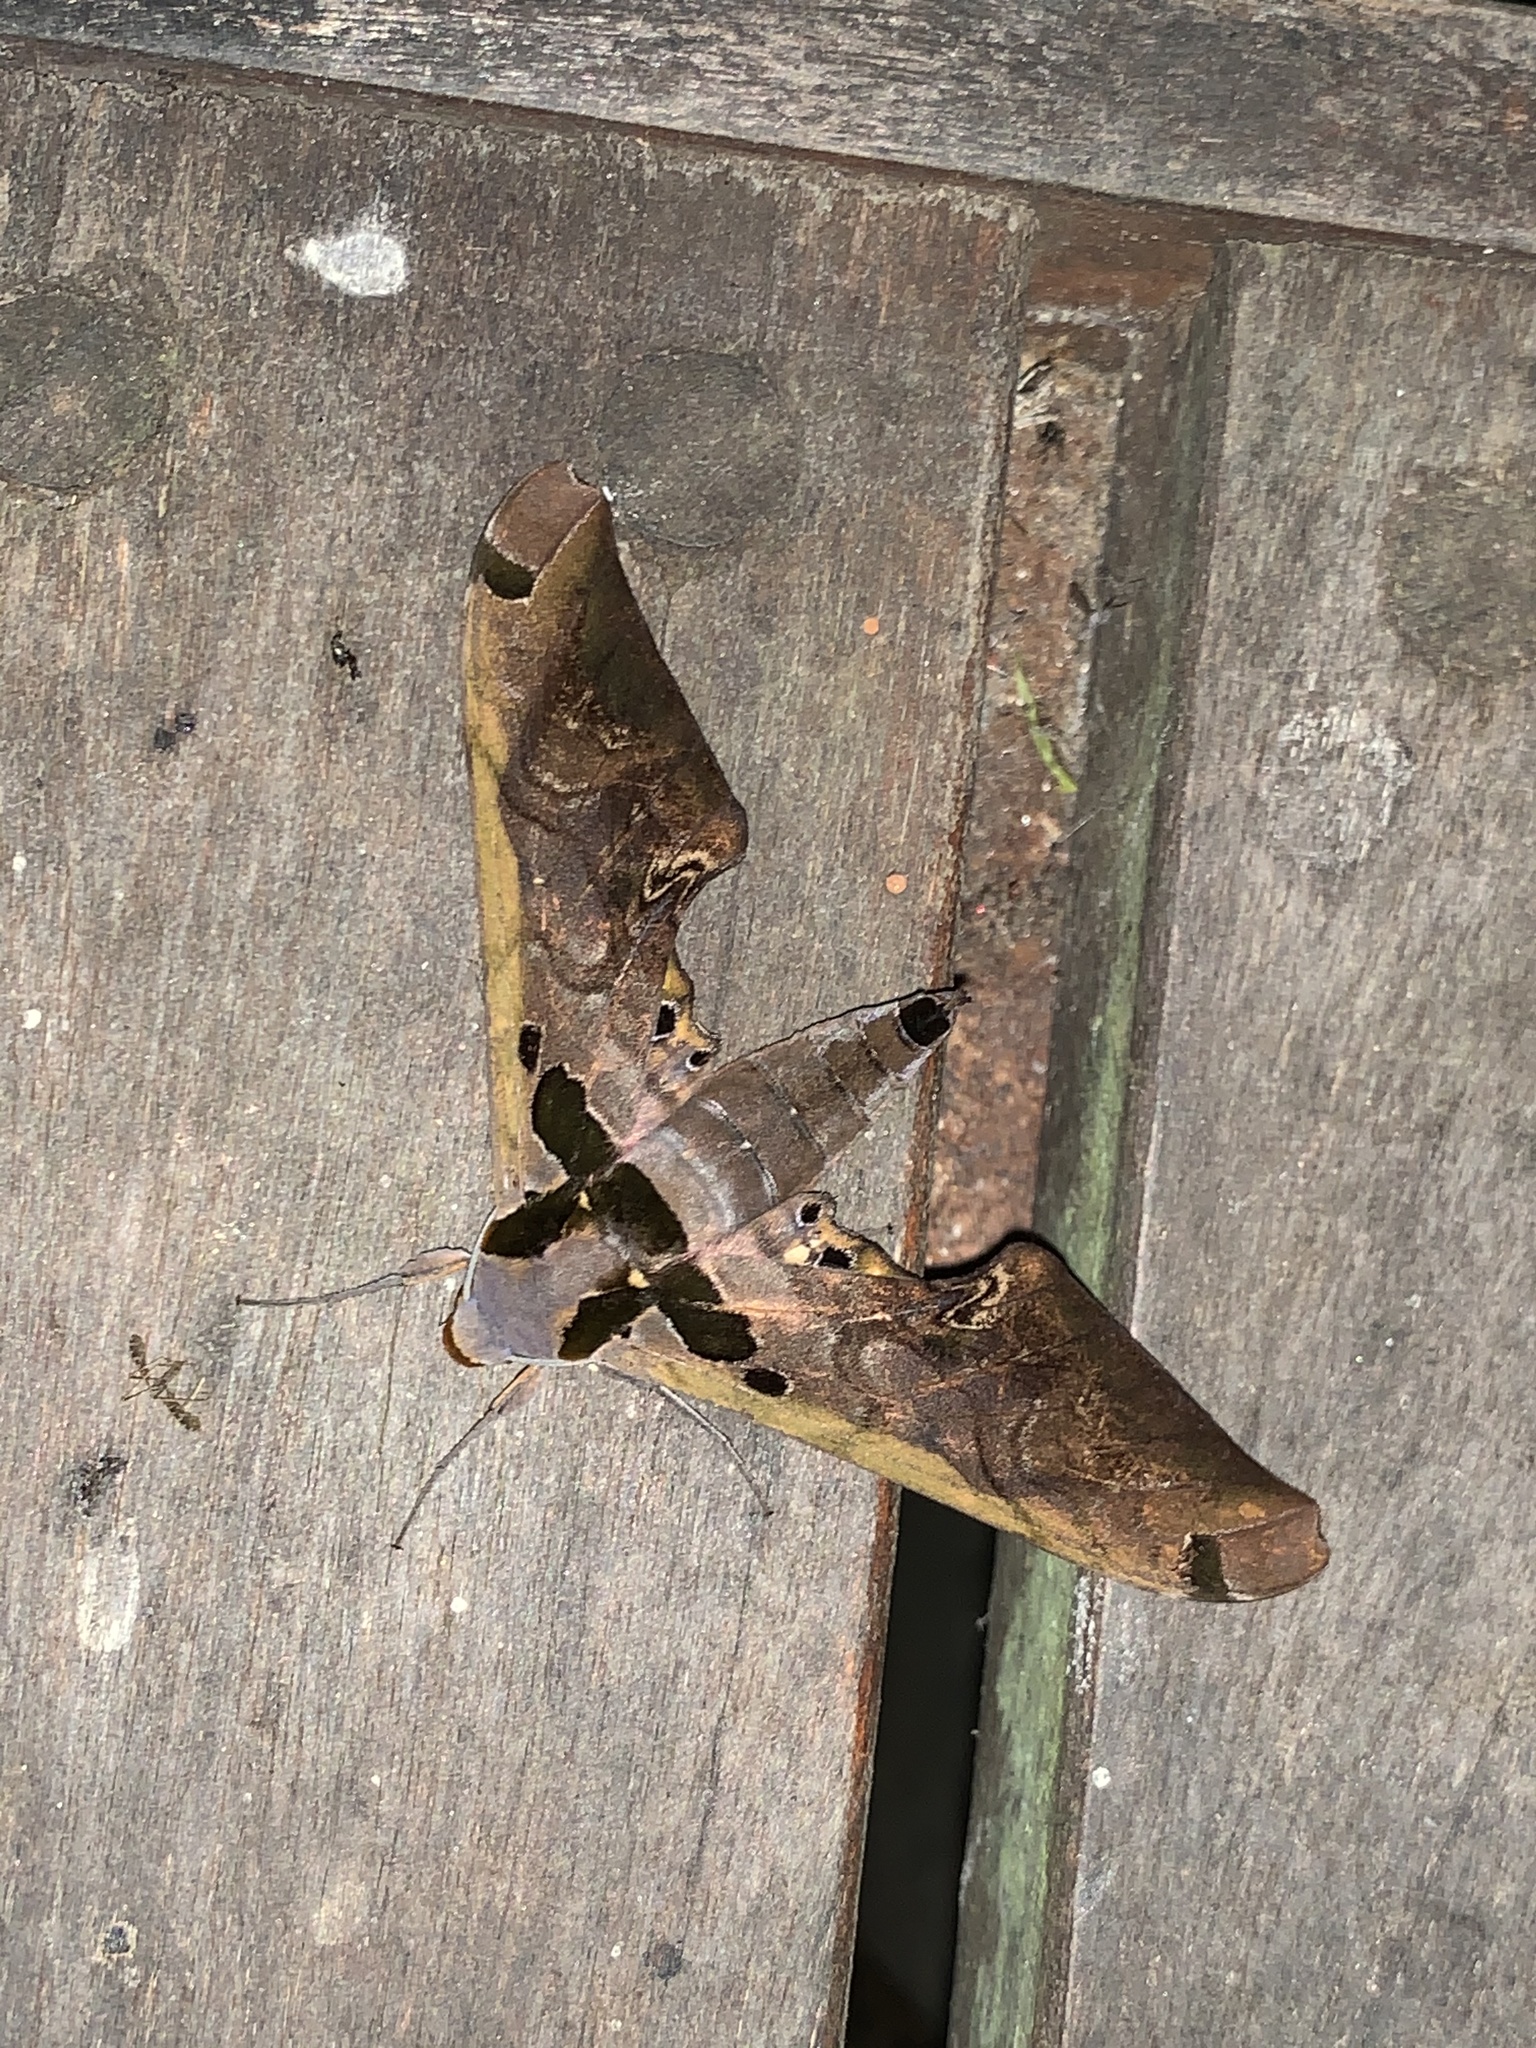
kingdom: Animalia
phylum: Arthropoda
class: Insecta
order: Lepidoptera
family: Sphingidae
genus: Adhemarius
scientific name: Adhemarius sexoculata
